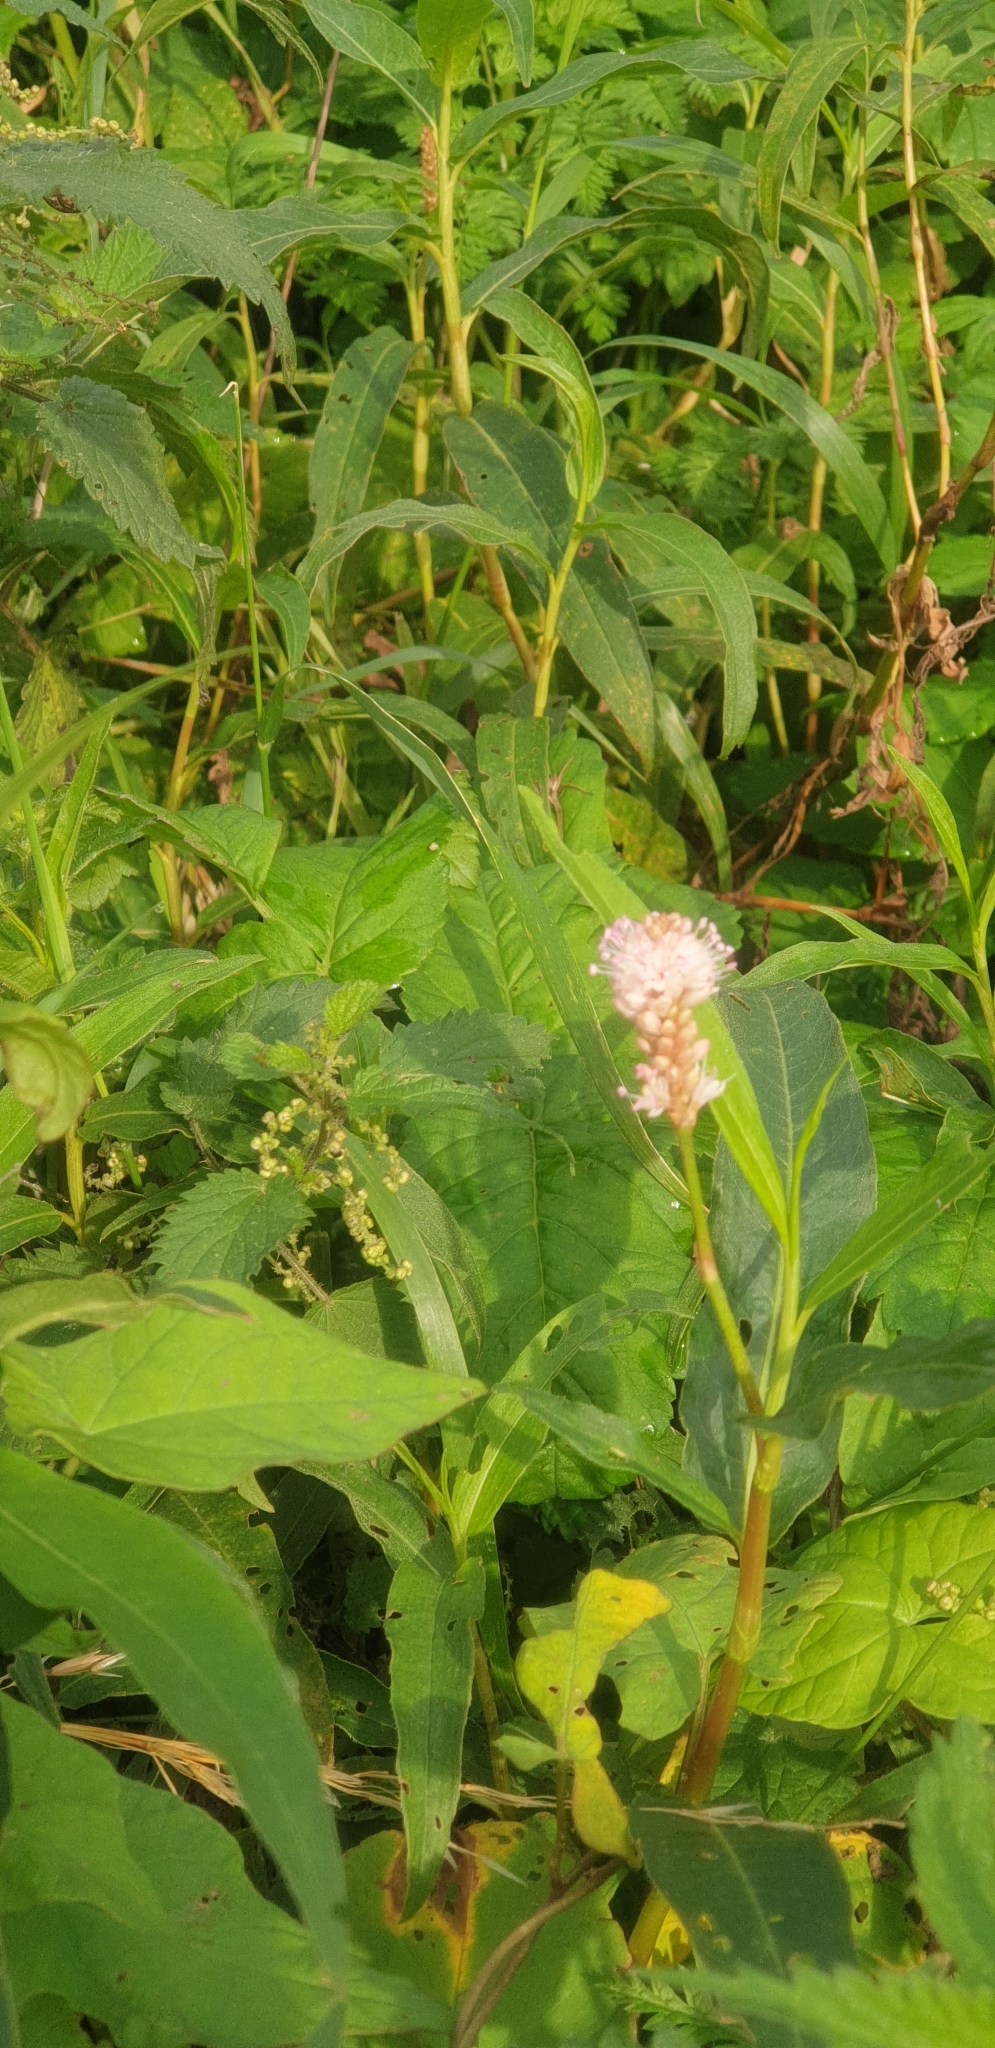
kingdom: Plantae
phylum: Tracheophyta
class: Magnoliopsida
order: Caryophyllales
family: Polygonaceae
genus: Persicaria
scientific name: Persicaria amphibia
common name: Amphibious bistort
